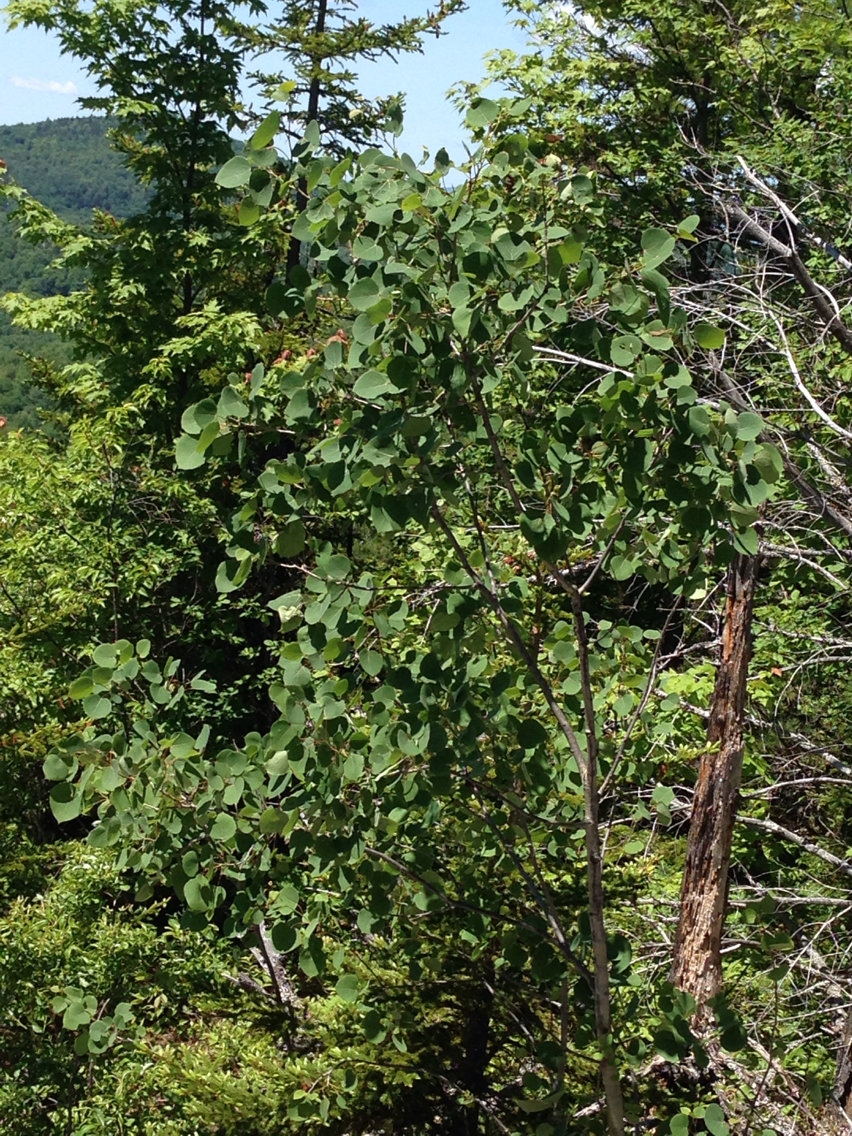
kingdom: Plantae
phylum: Tracheophyta
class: Magnoliopsida
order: Malpighiales
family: Salicaceae
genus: Populus
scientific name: Populus tremuloides
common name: Quaking aspen
